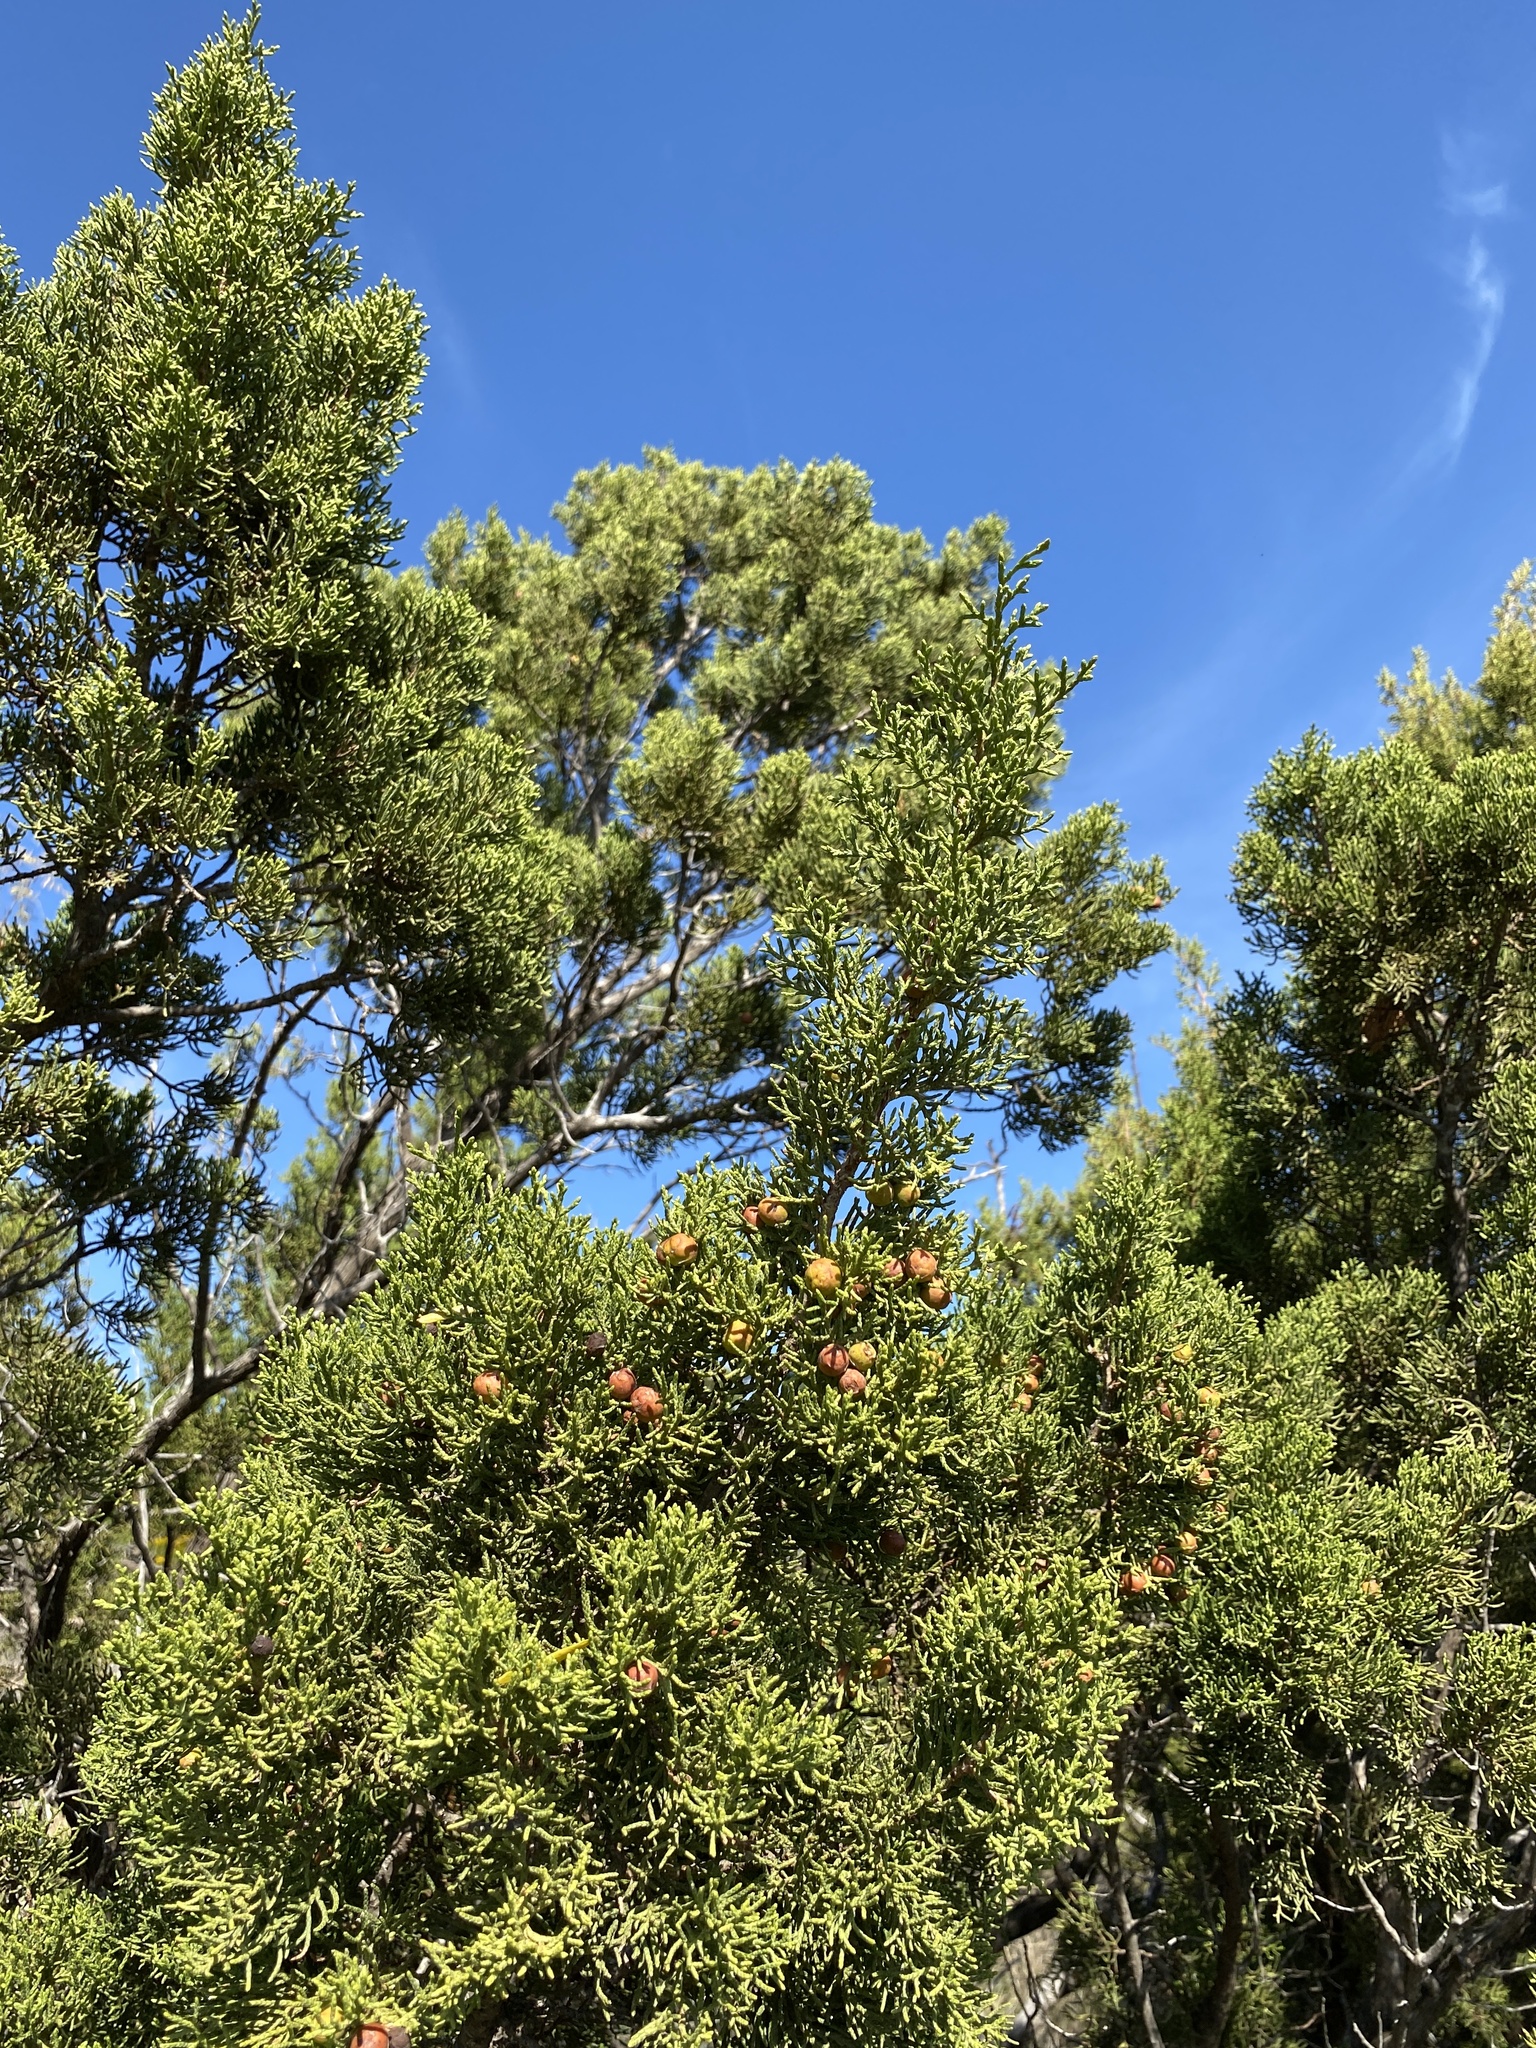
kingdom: Plantae
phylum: Tracheophyta
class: Pinopsida
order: Pinales
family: Cupressaceae
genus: Juniperus
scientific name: Juniperus pinchotii
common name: Pinchot juniper
